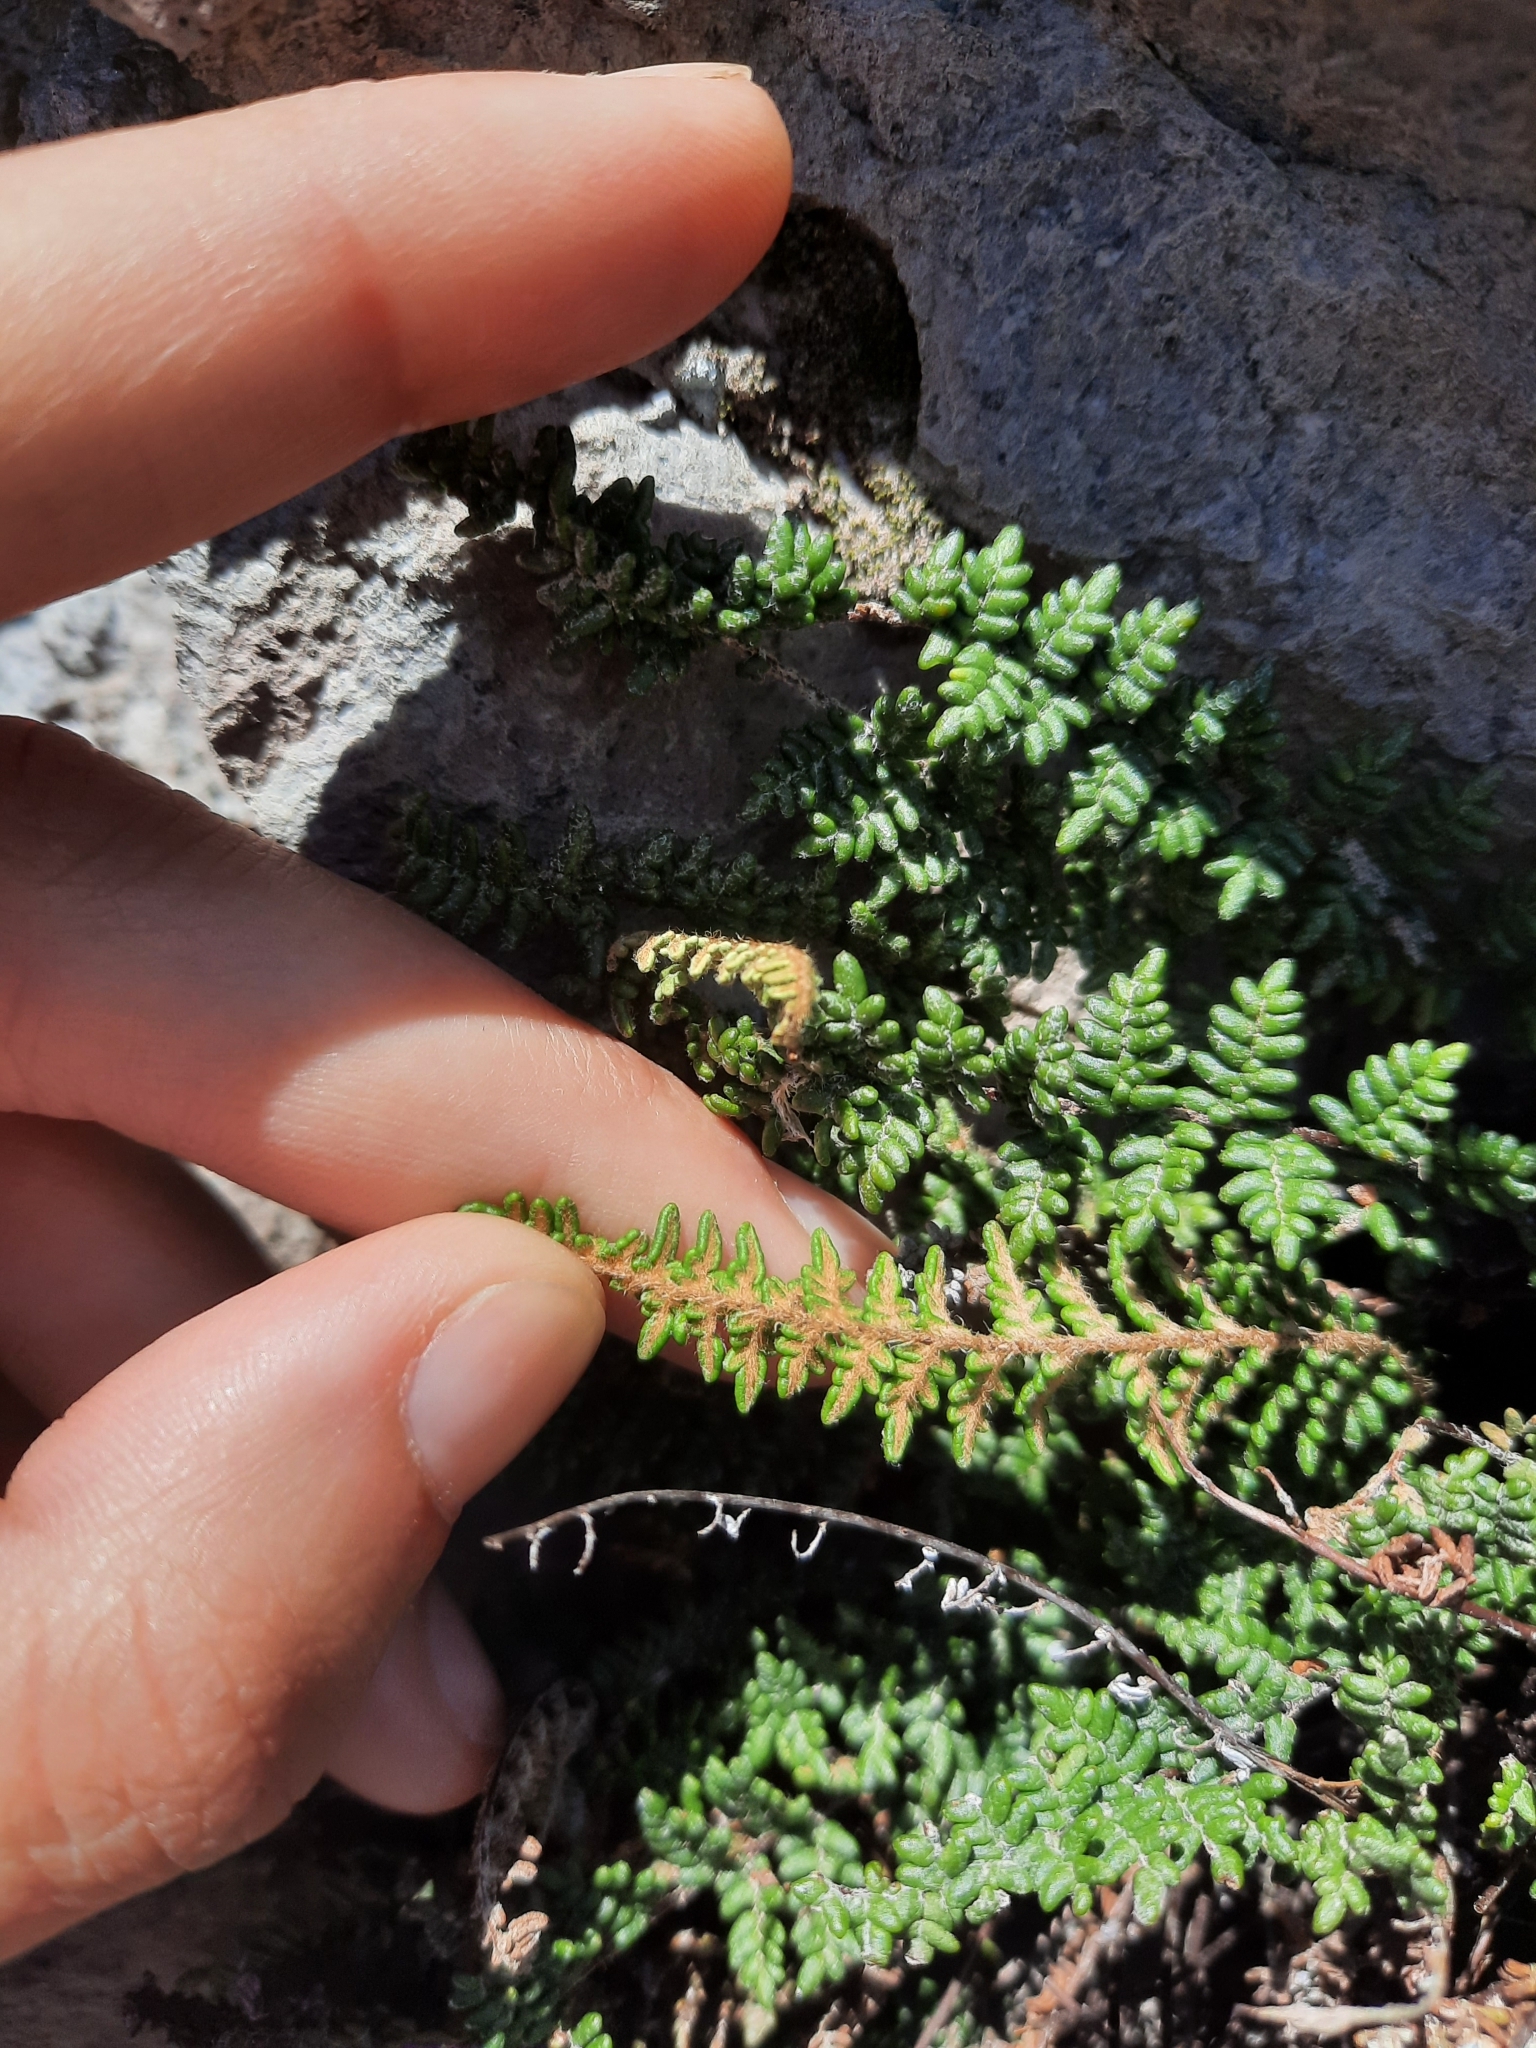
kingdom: Plantae
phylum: Tracheophyta
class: Polypodiopsida
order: Polypodiales
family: Pteridaceae
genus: Myriopteris
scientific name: Myriopteris gracillima
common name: Lace fern
